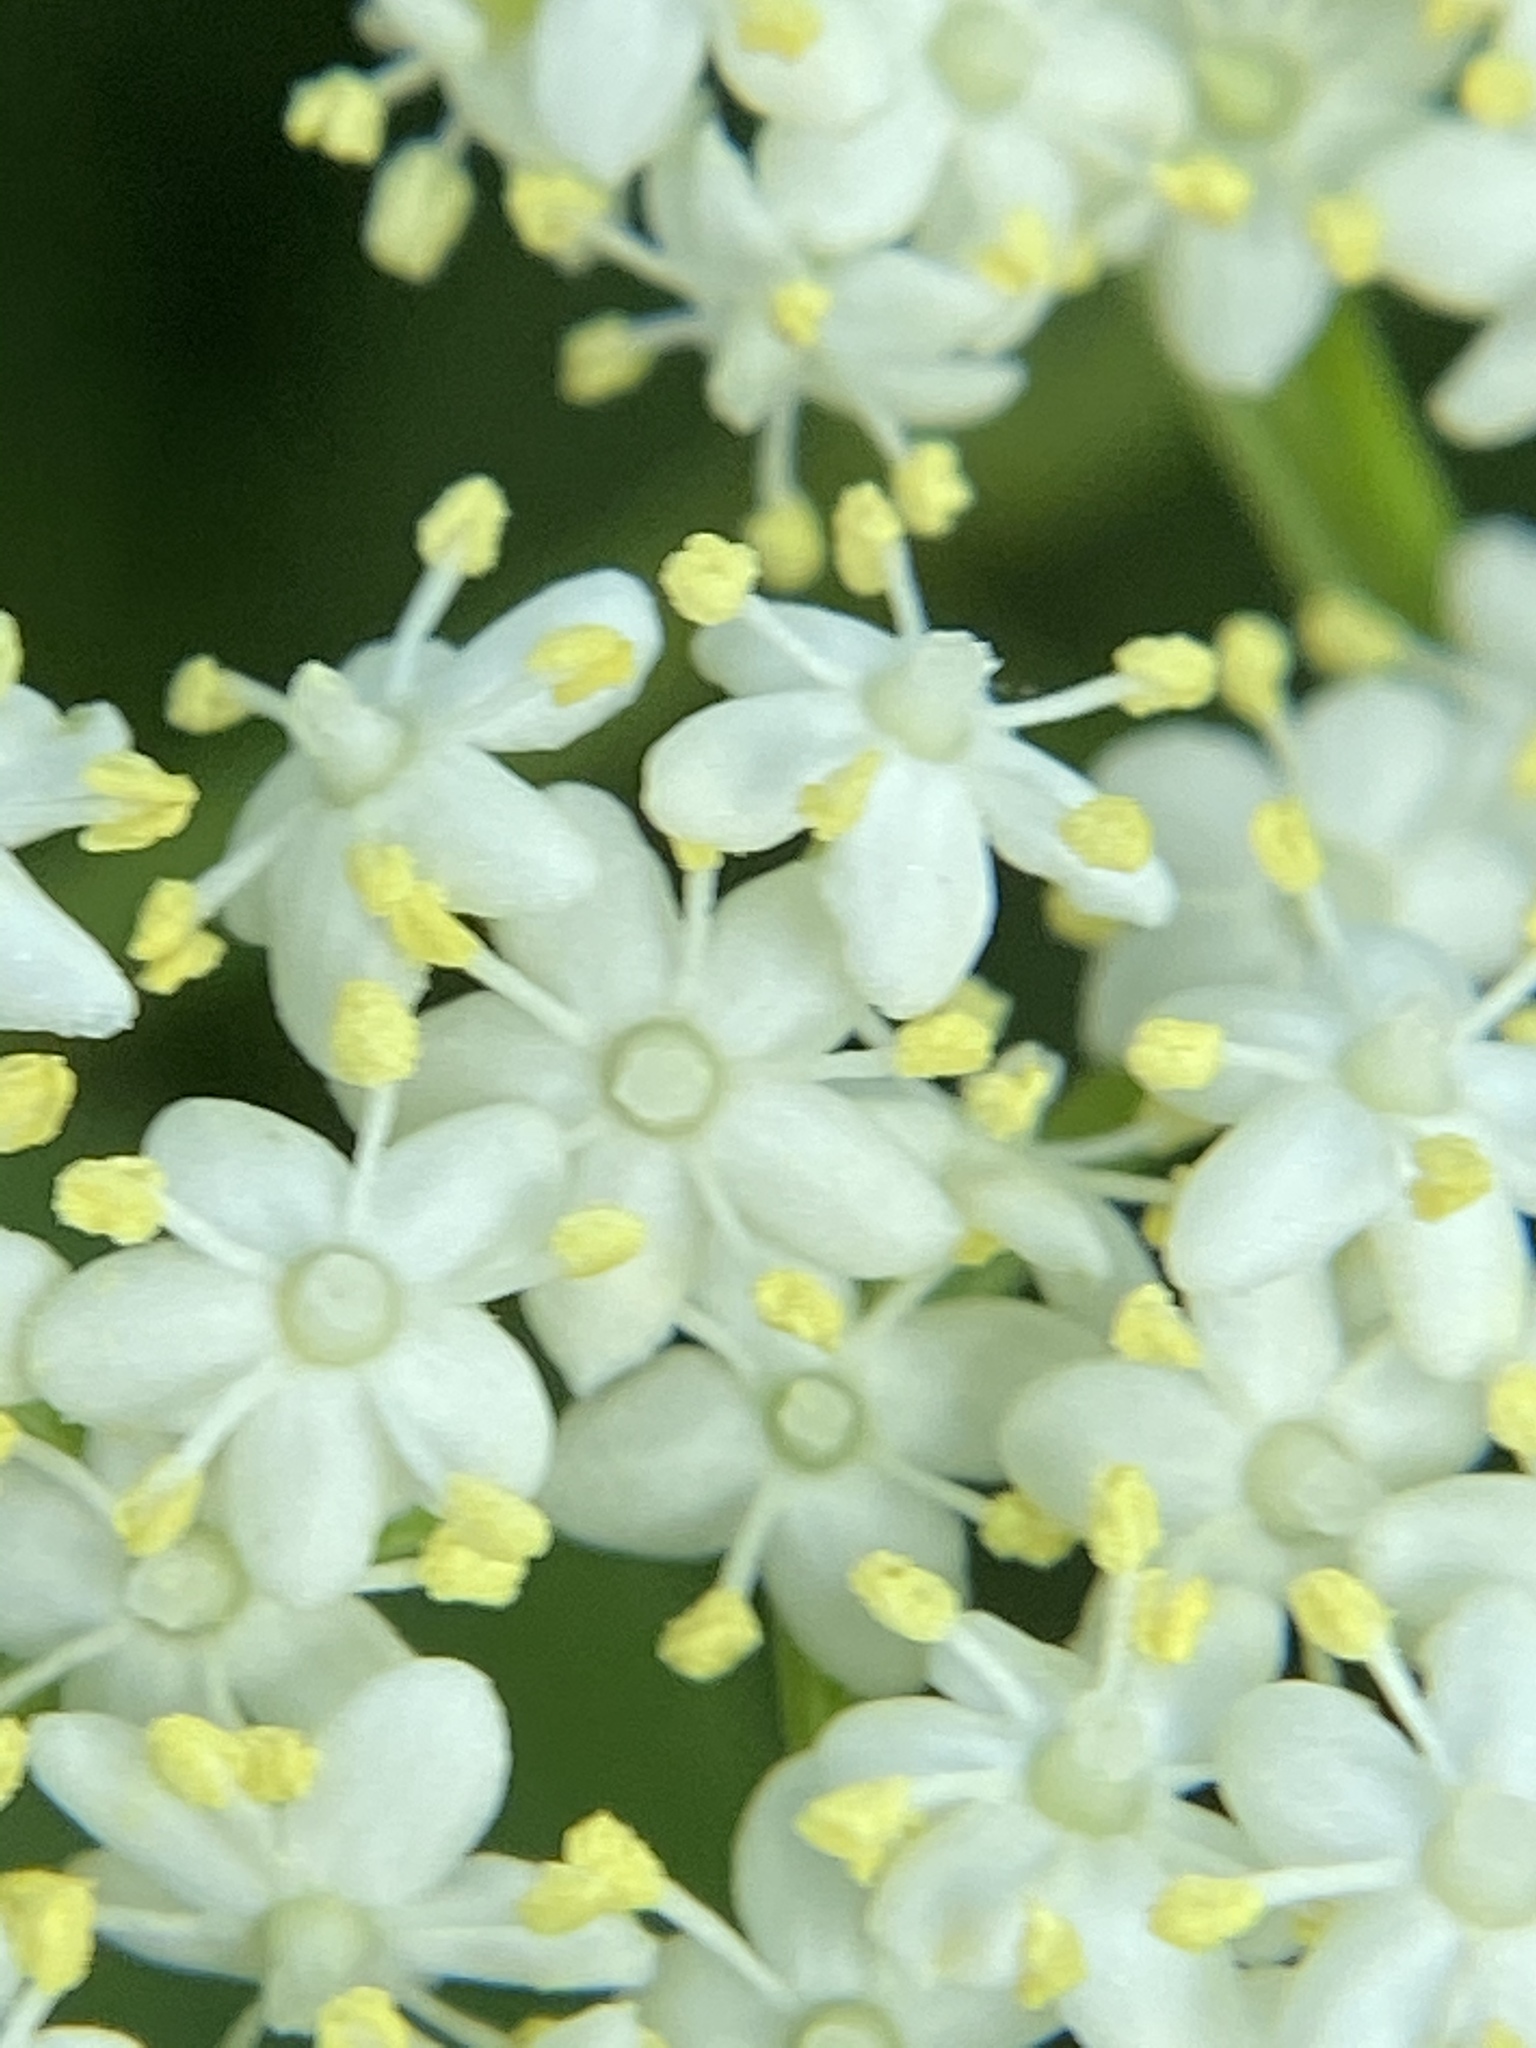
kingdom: Plantae
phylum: Tracheophyta
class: Magnoliopsida
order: Dipsacales
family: Viburnaceae
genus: Sambucus
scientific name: Sambucus canadensis
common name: American elder
